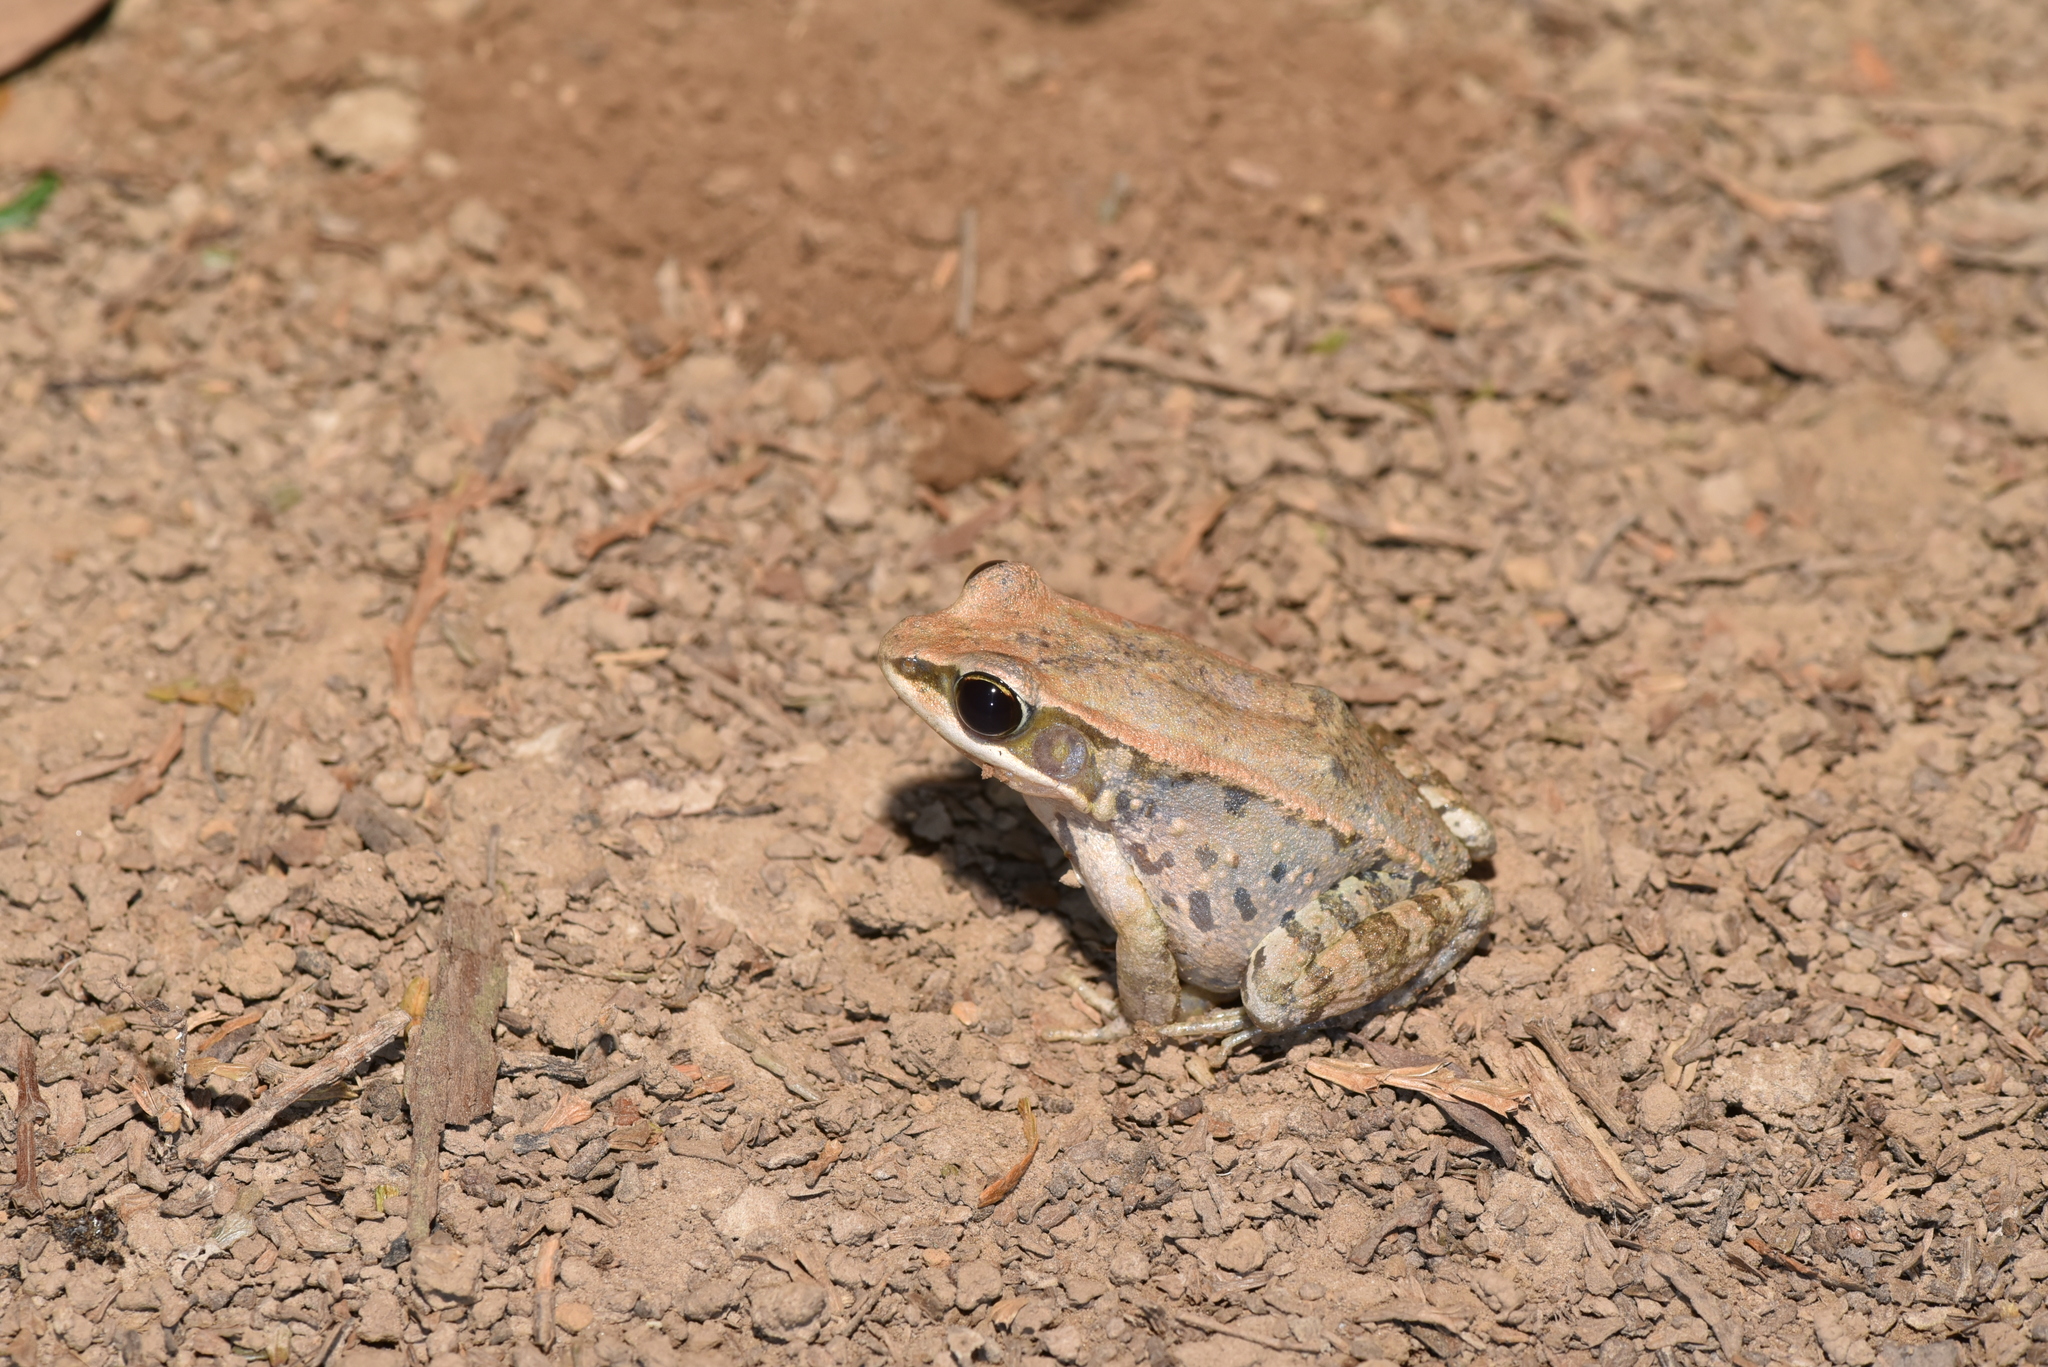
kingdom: Animalia
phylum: Chordata
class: Amphibia
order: Anura
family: Ranidae
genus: Hylarana
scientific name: Hylarana latouchii
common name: Broad-folded frog
